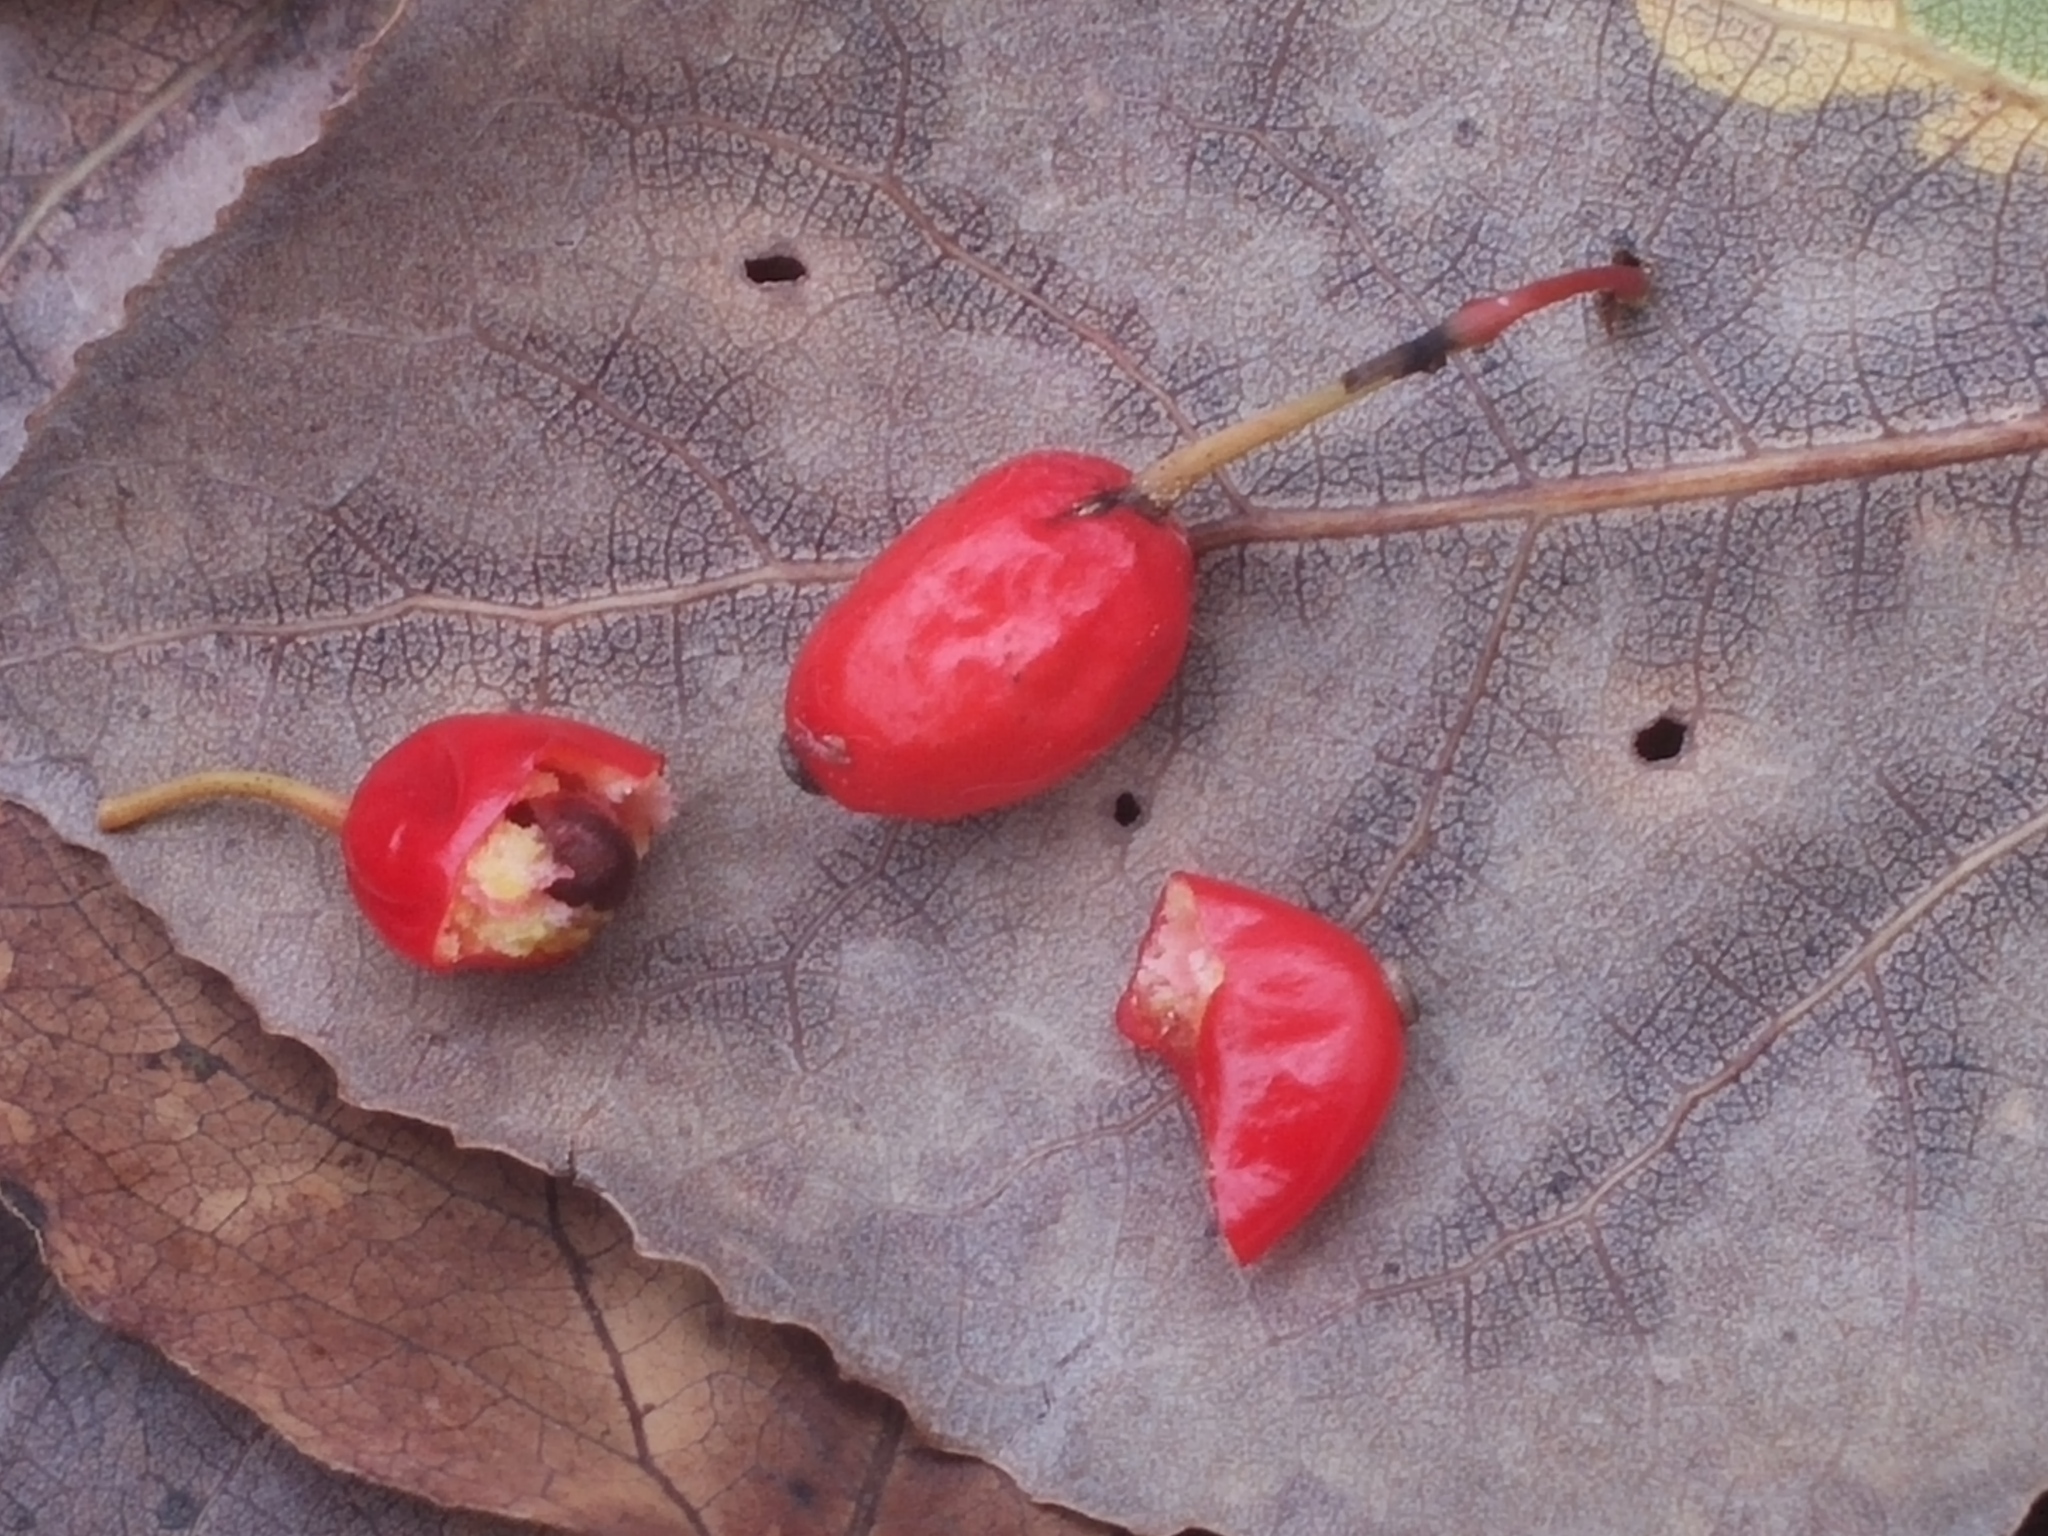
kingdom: Plantae
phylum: Tracheophyta
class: Magnoliopsida
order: Ranunculales
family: Berberidaceae
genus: Berberis
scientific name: Berberis thunbergii
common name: Japanese barberry
